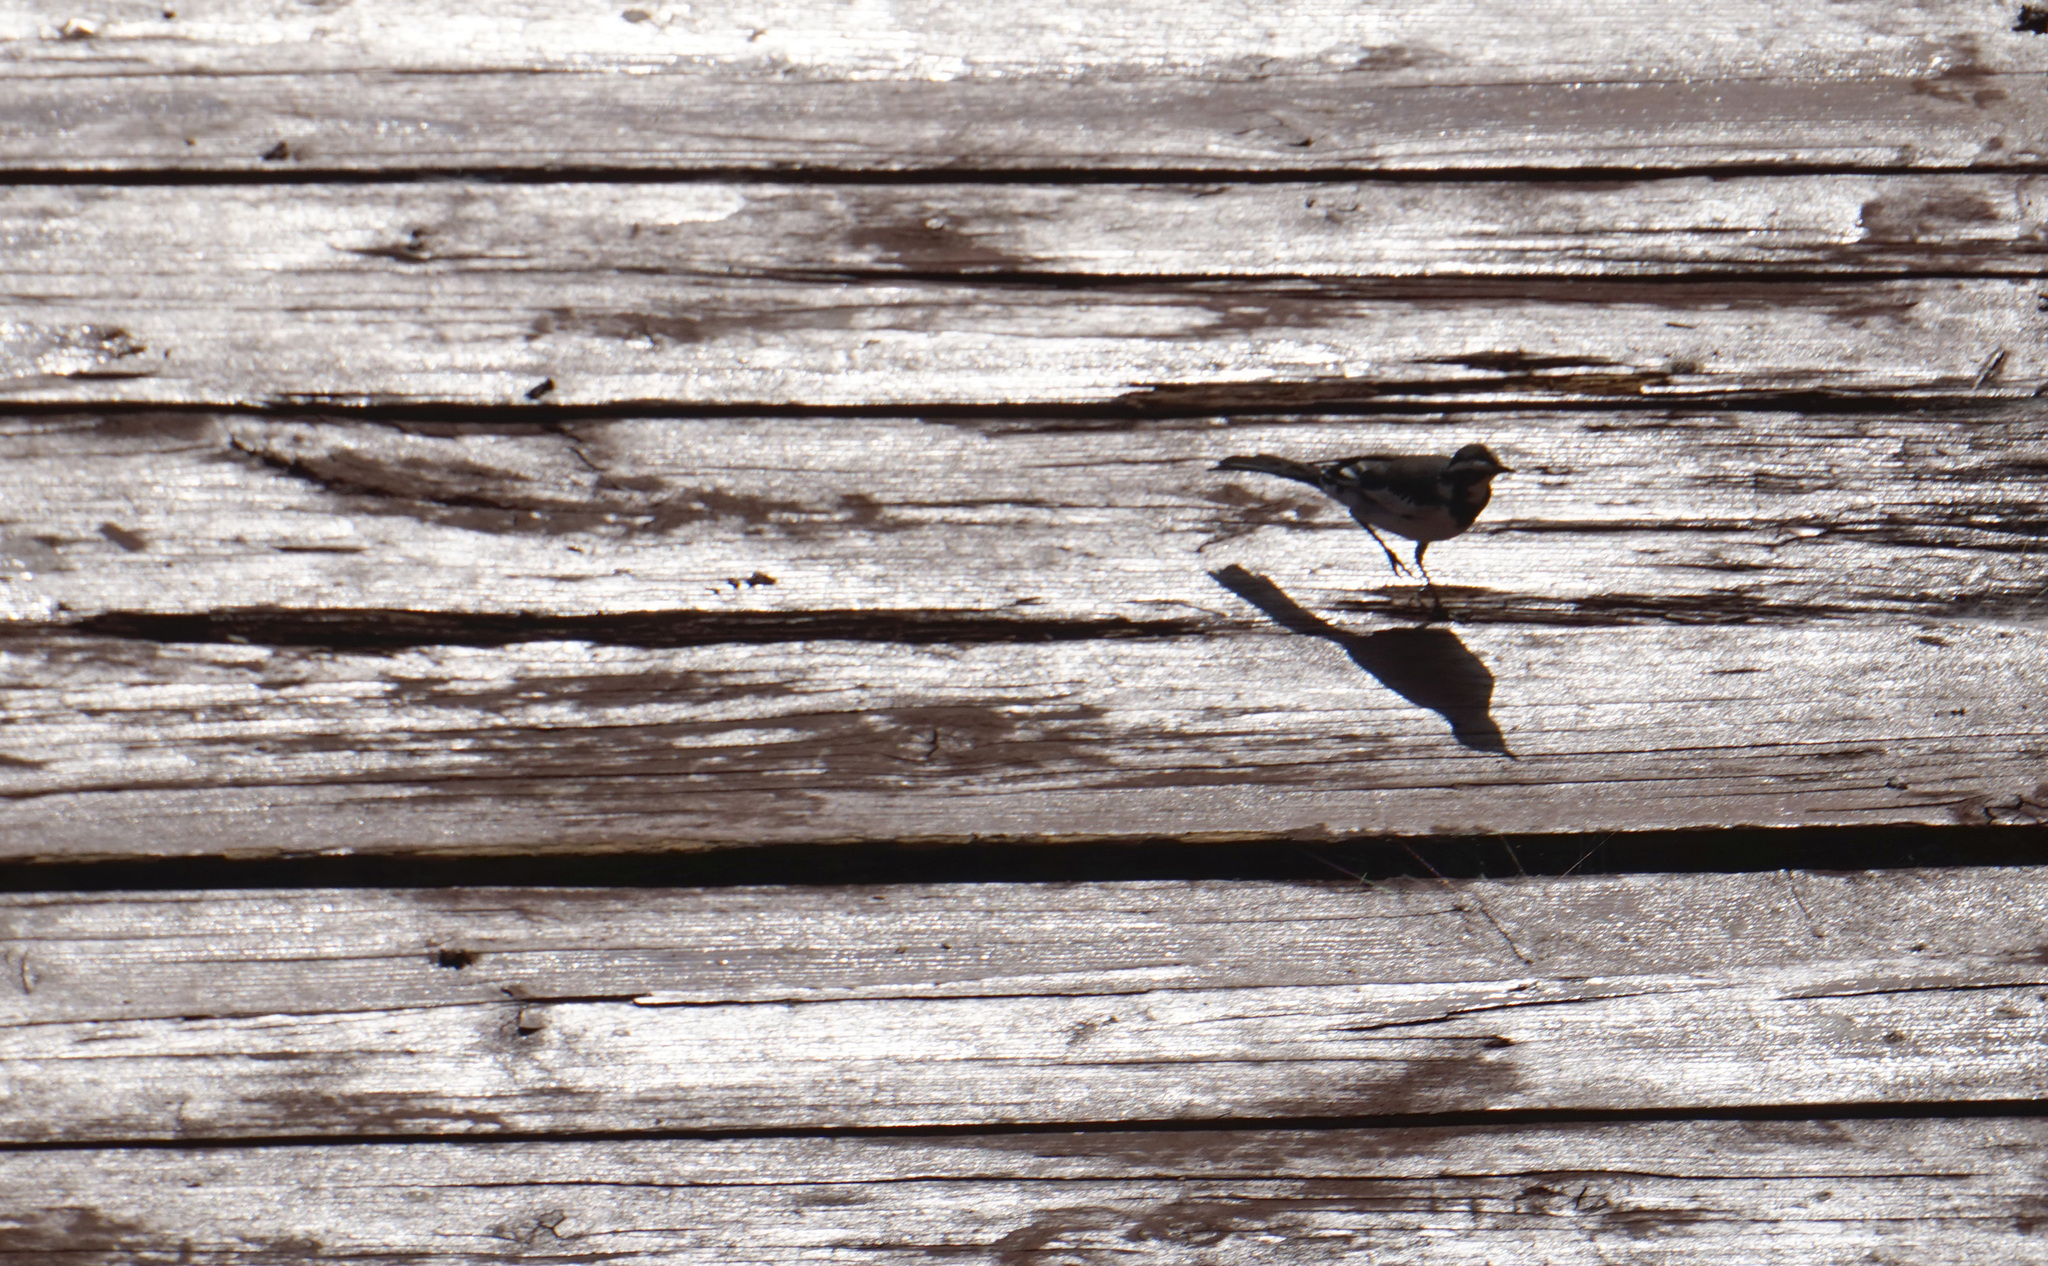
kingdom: Animalia
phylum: Chordata
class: Aves
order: Passeriformes
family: Motacillidae
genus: Motacilla
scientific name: Motacilla aguimp
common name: African pied wagtail
